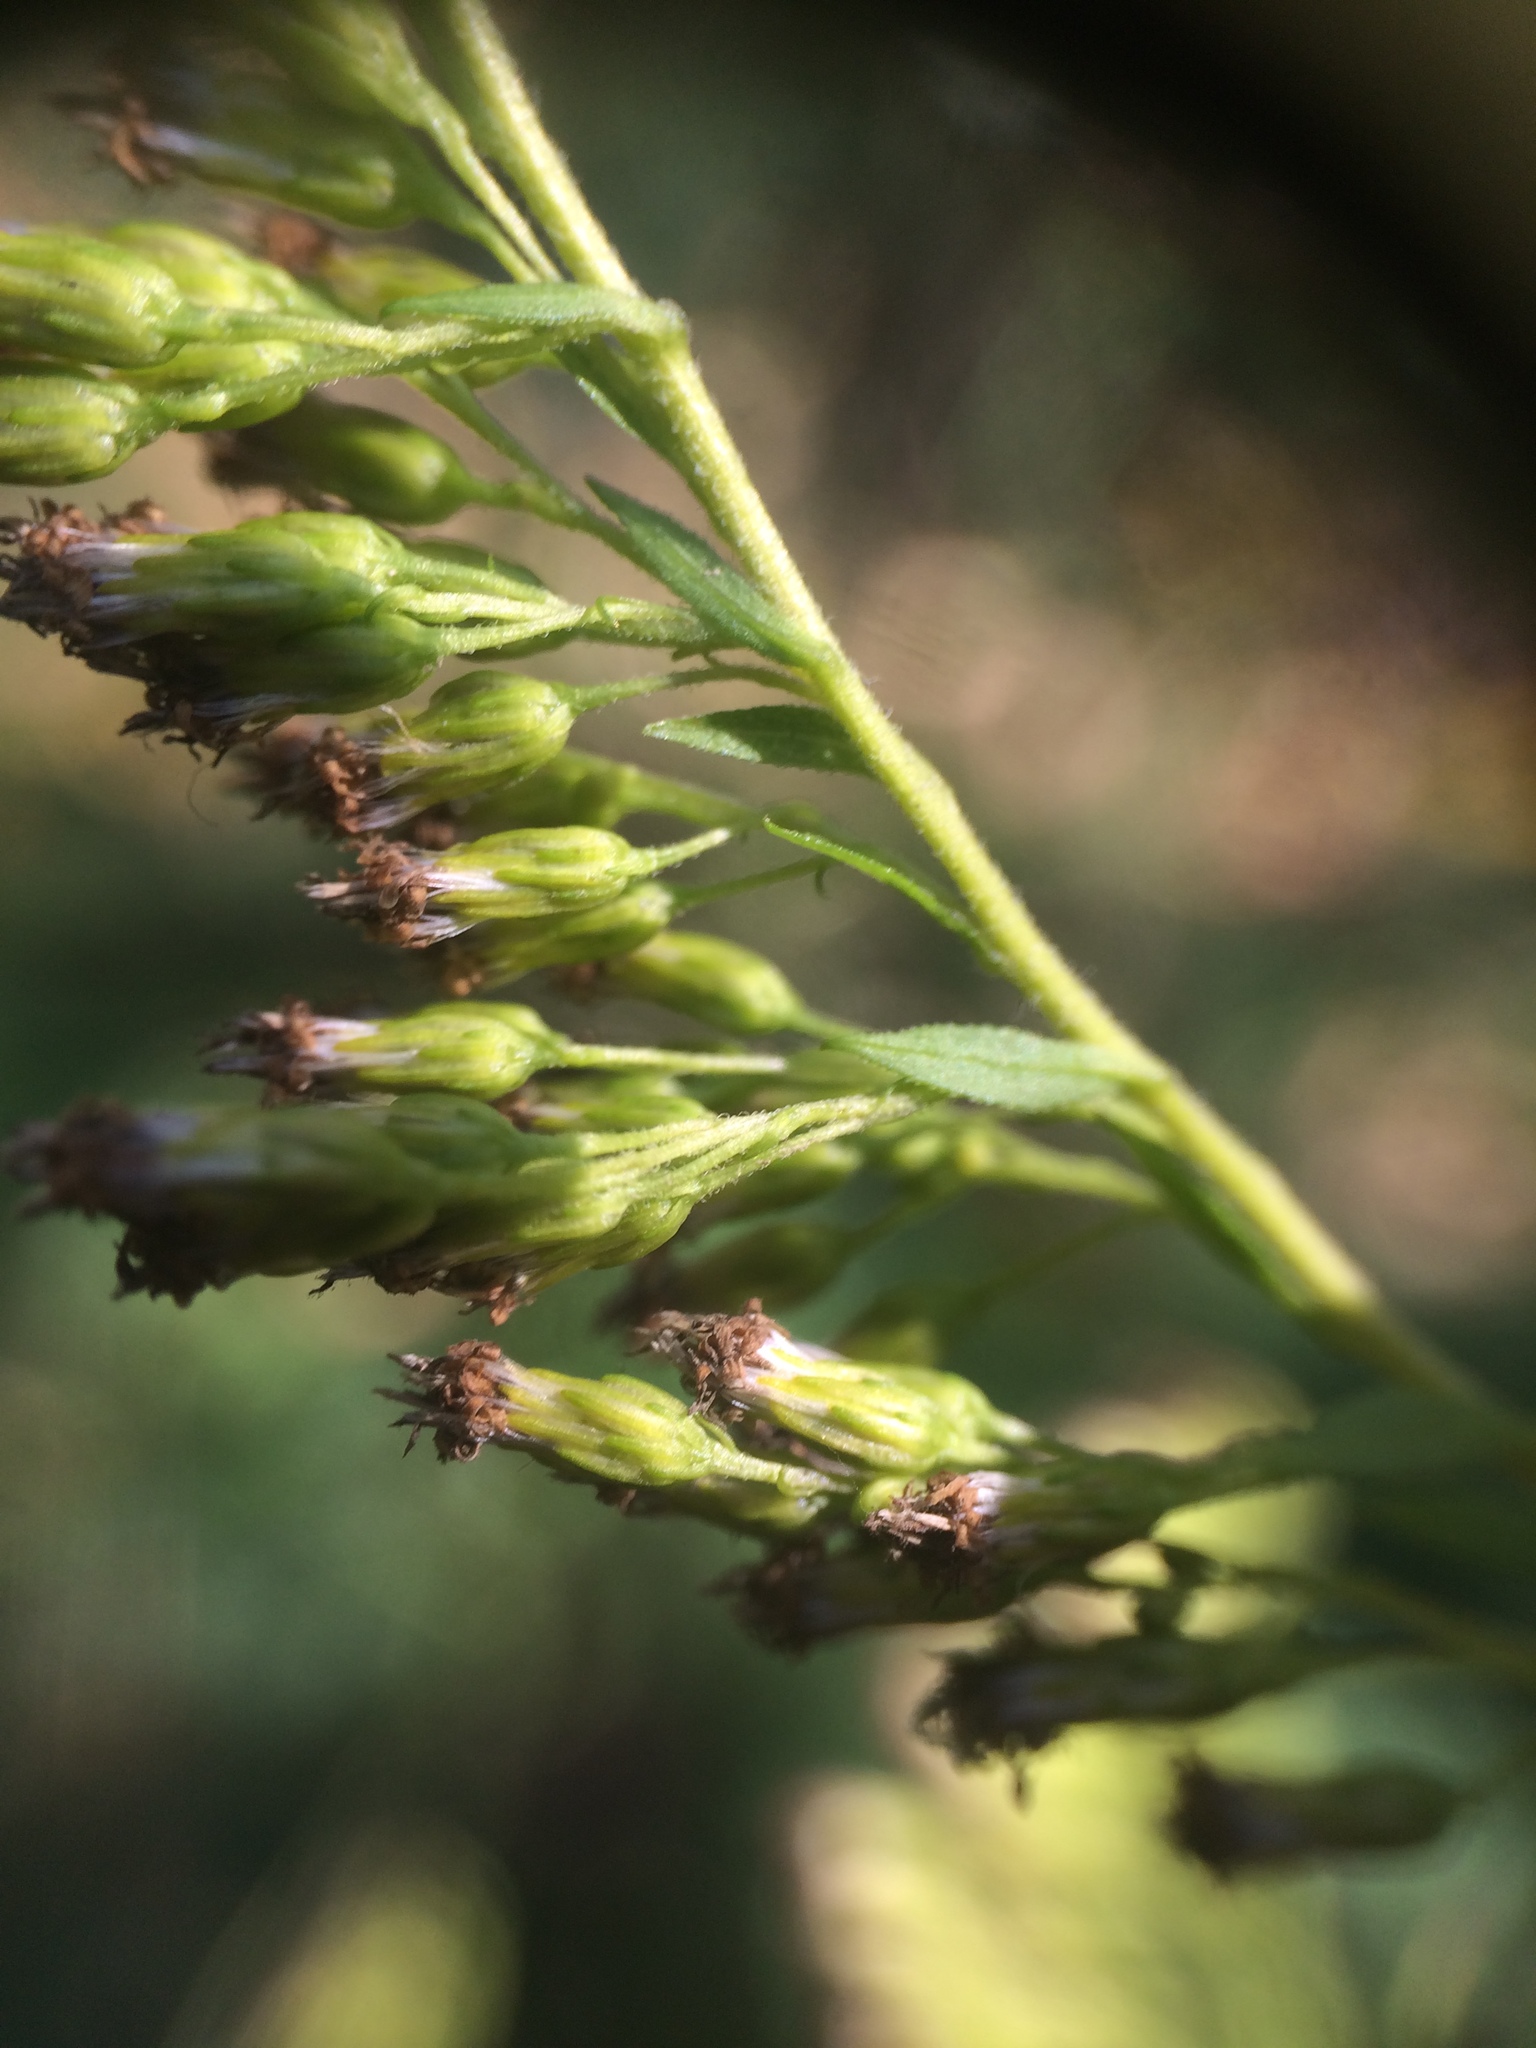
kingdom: Plantae
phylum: Tracheophyta
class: Magnoliopsida
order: Asterales
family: Asteraceae
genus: Solidago
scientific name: Solidago canadensis
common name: Canada goldenrod
